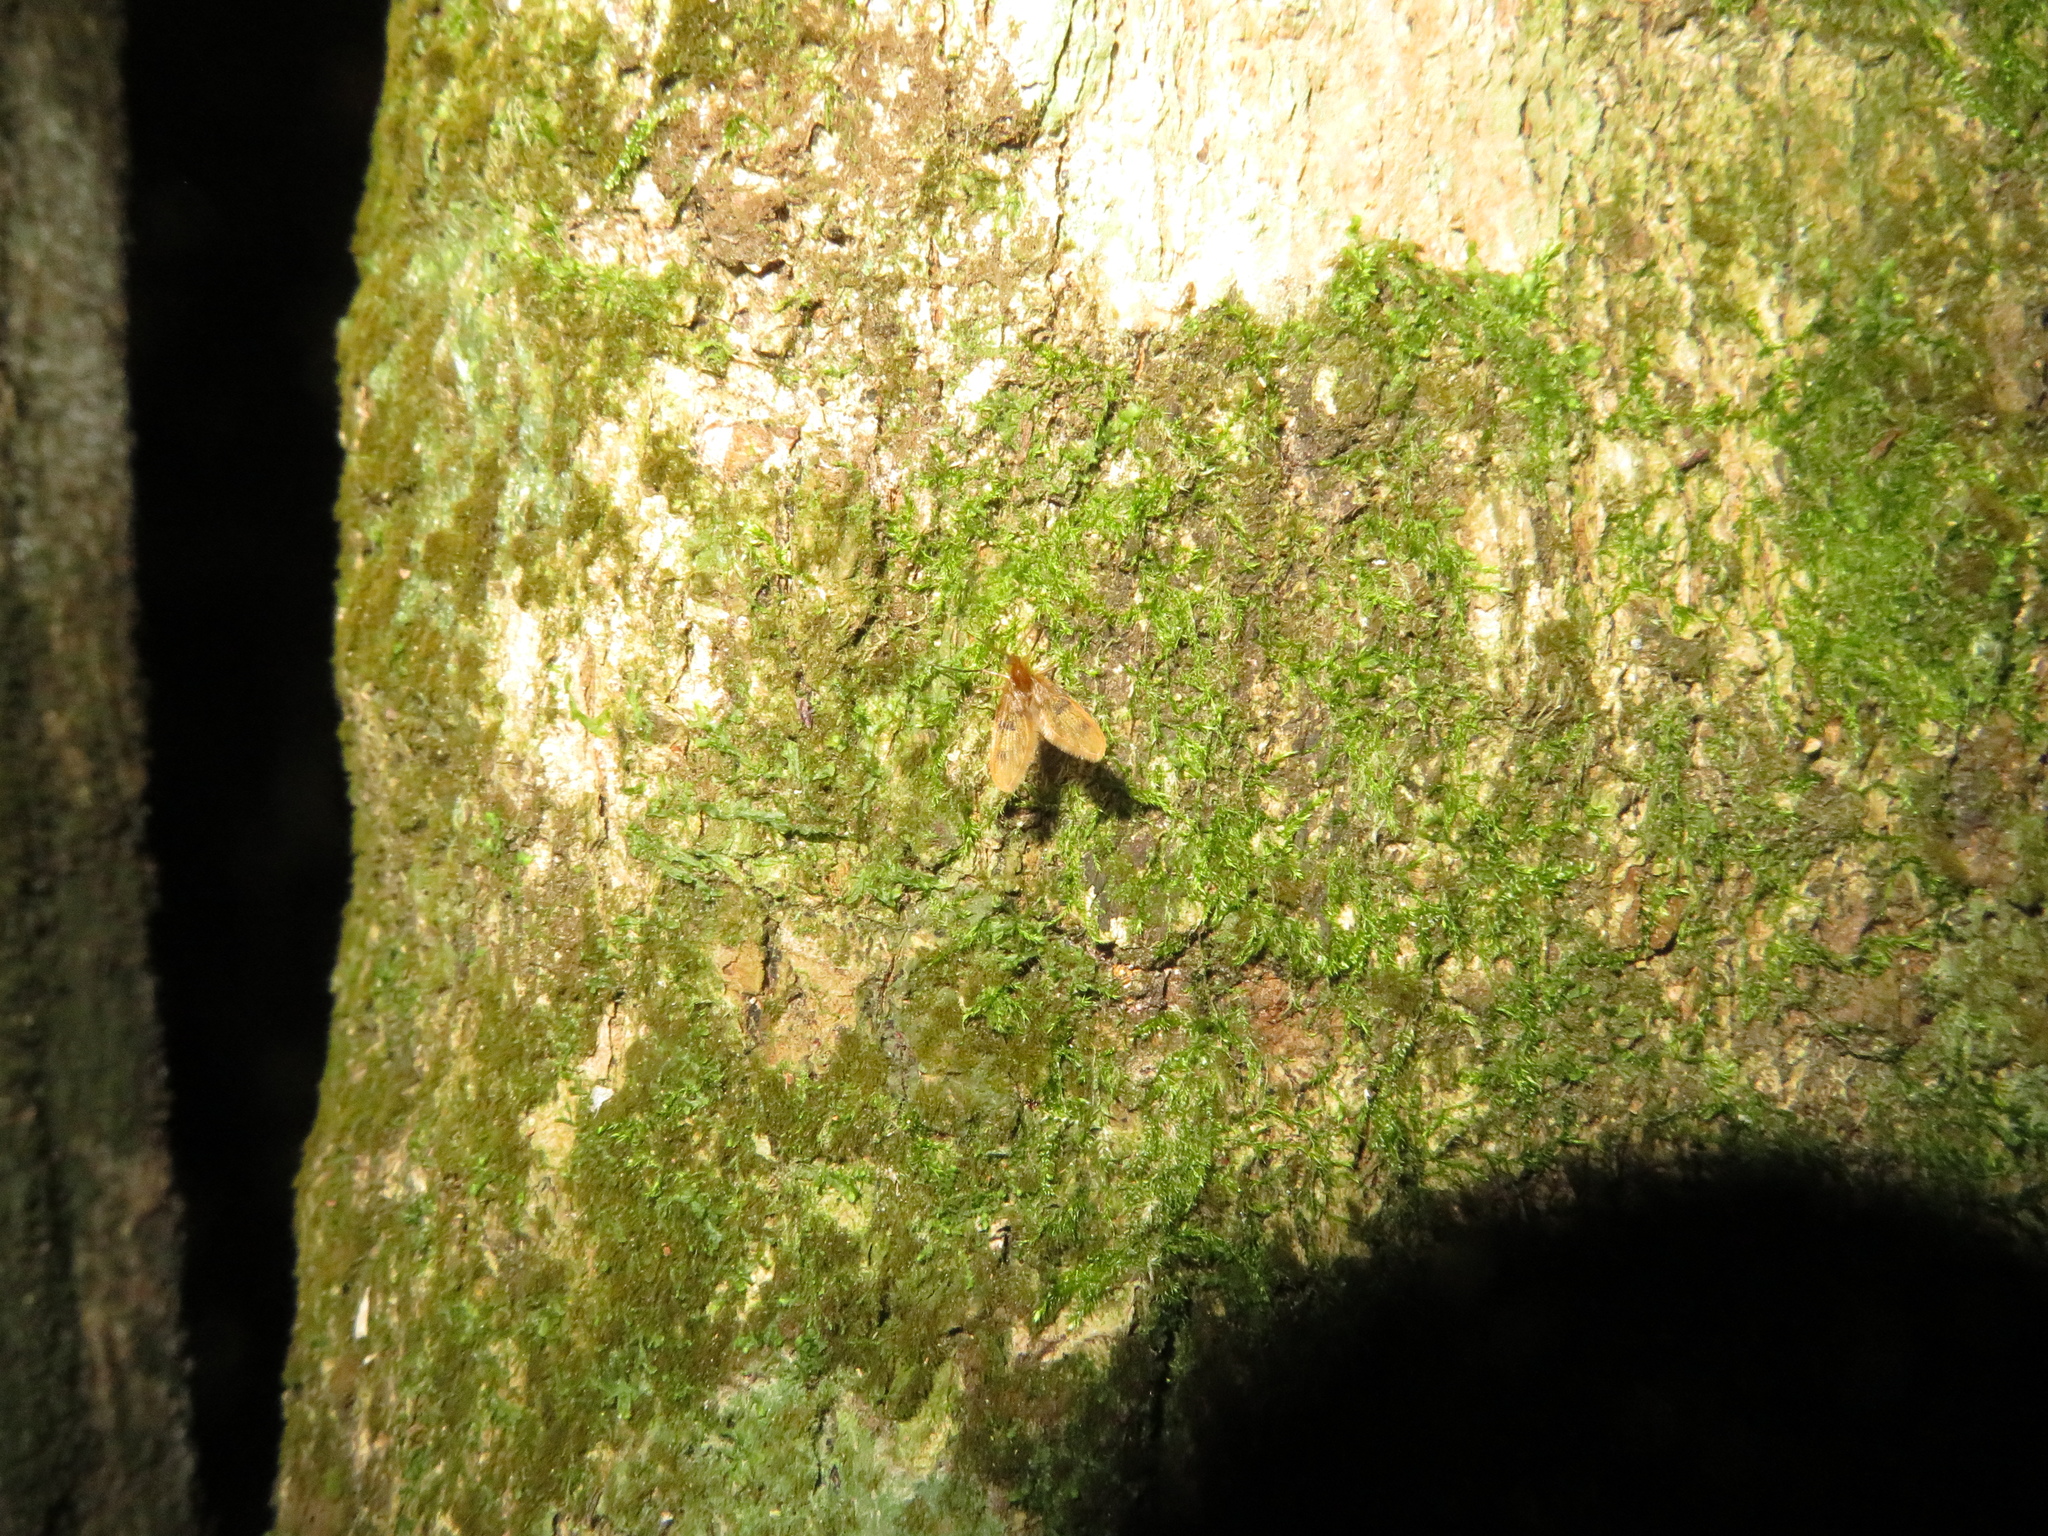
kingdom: Animalia
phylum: Arthropoda
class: Insecta
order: Diptera
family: Psychodidae
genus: Notofairchildia
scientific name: Notofairchildia zelandiae
